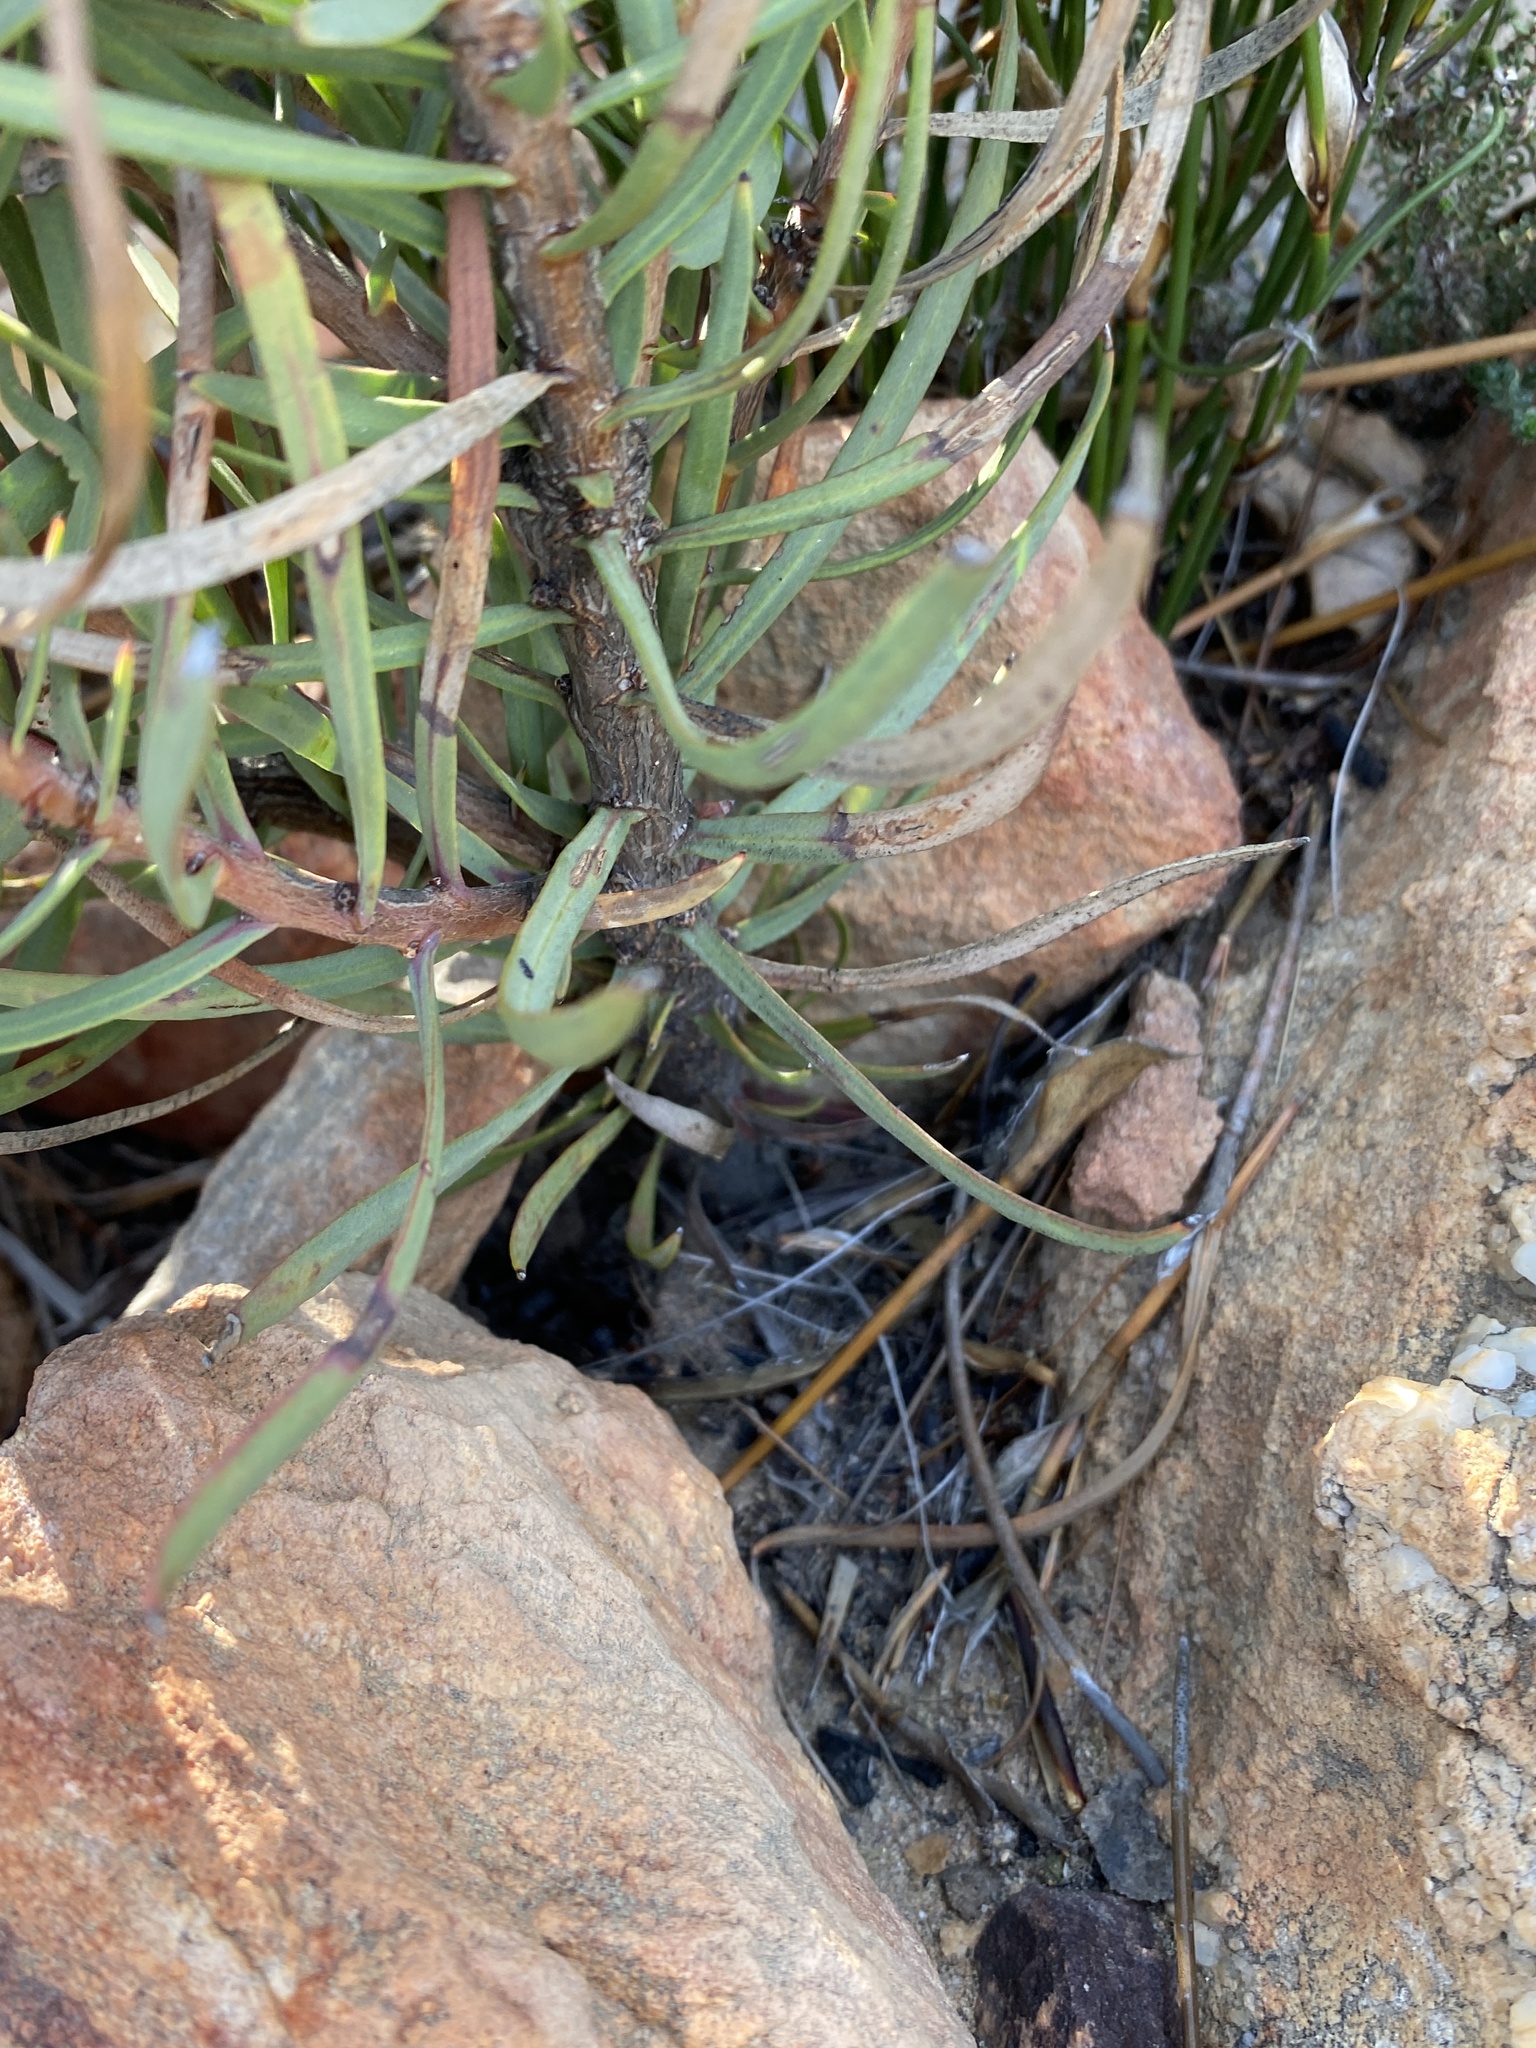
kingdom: Plantae
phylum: Tracheophyta
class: Magnoliopsida
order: Proteales
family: Proteaceae
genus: Protea
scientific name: Protea humiflora
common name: Patent-leaf sugarbush
